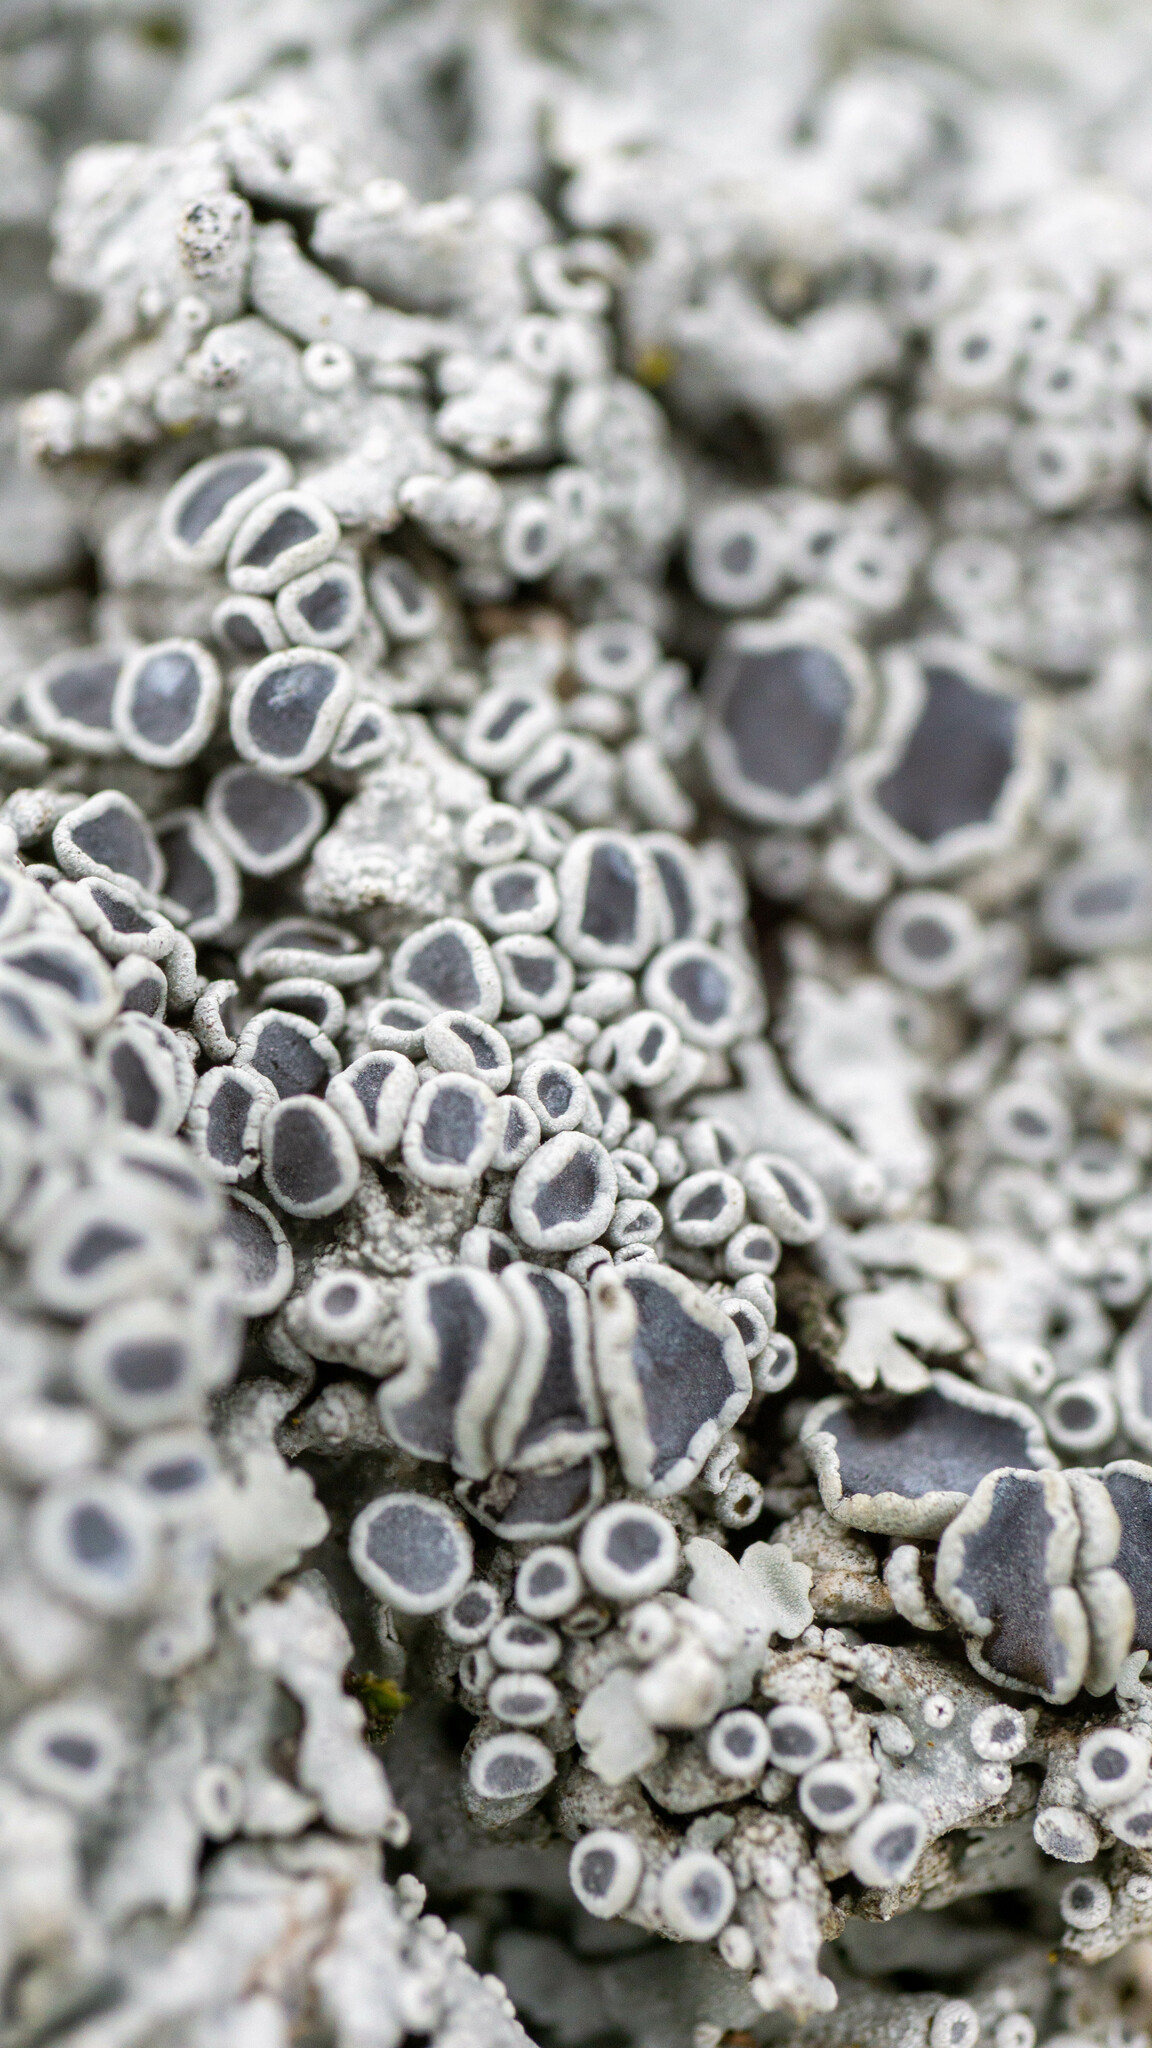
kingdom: Fungi
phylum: Ascomycota
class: Lecanoromycetes
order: Caliciales
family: Physciaceae
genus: Physcia
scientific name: Physcia stellaris
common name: Star rosette lichen
